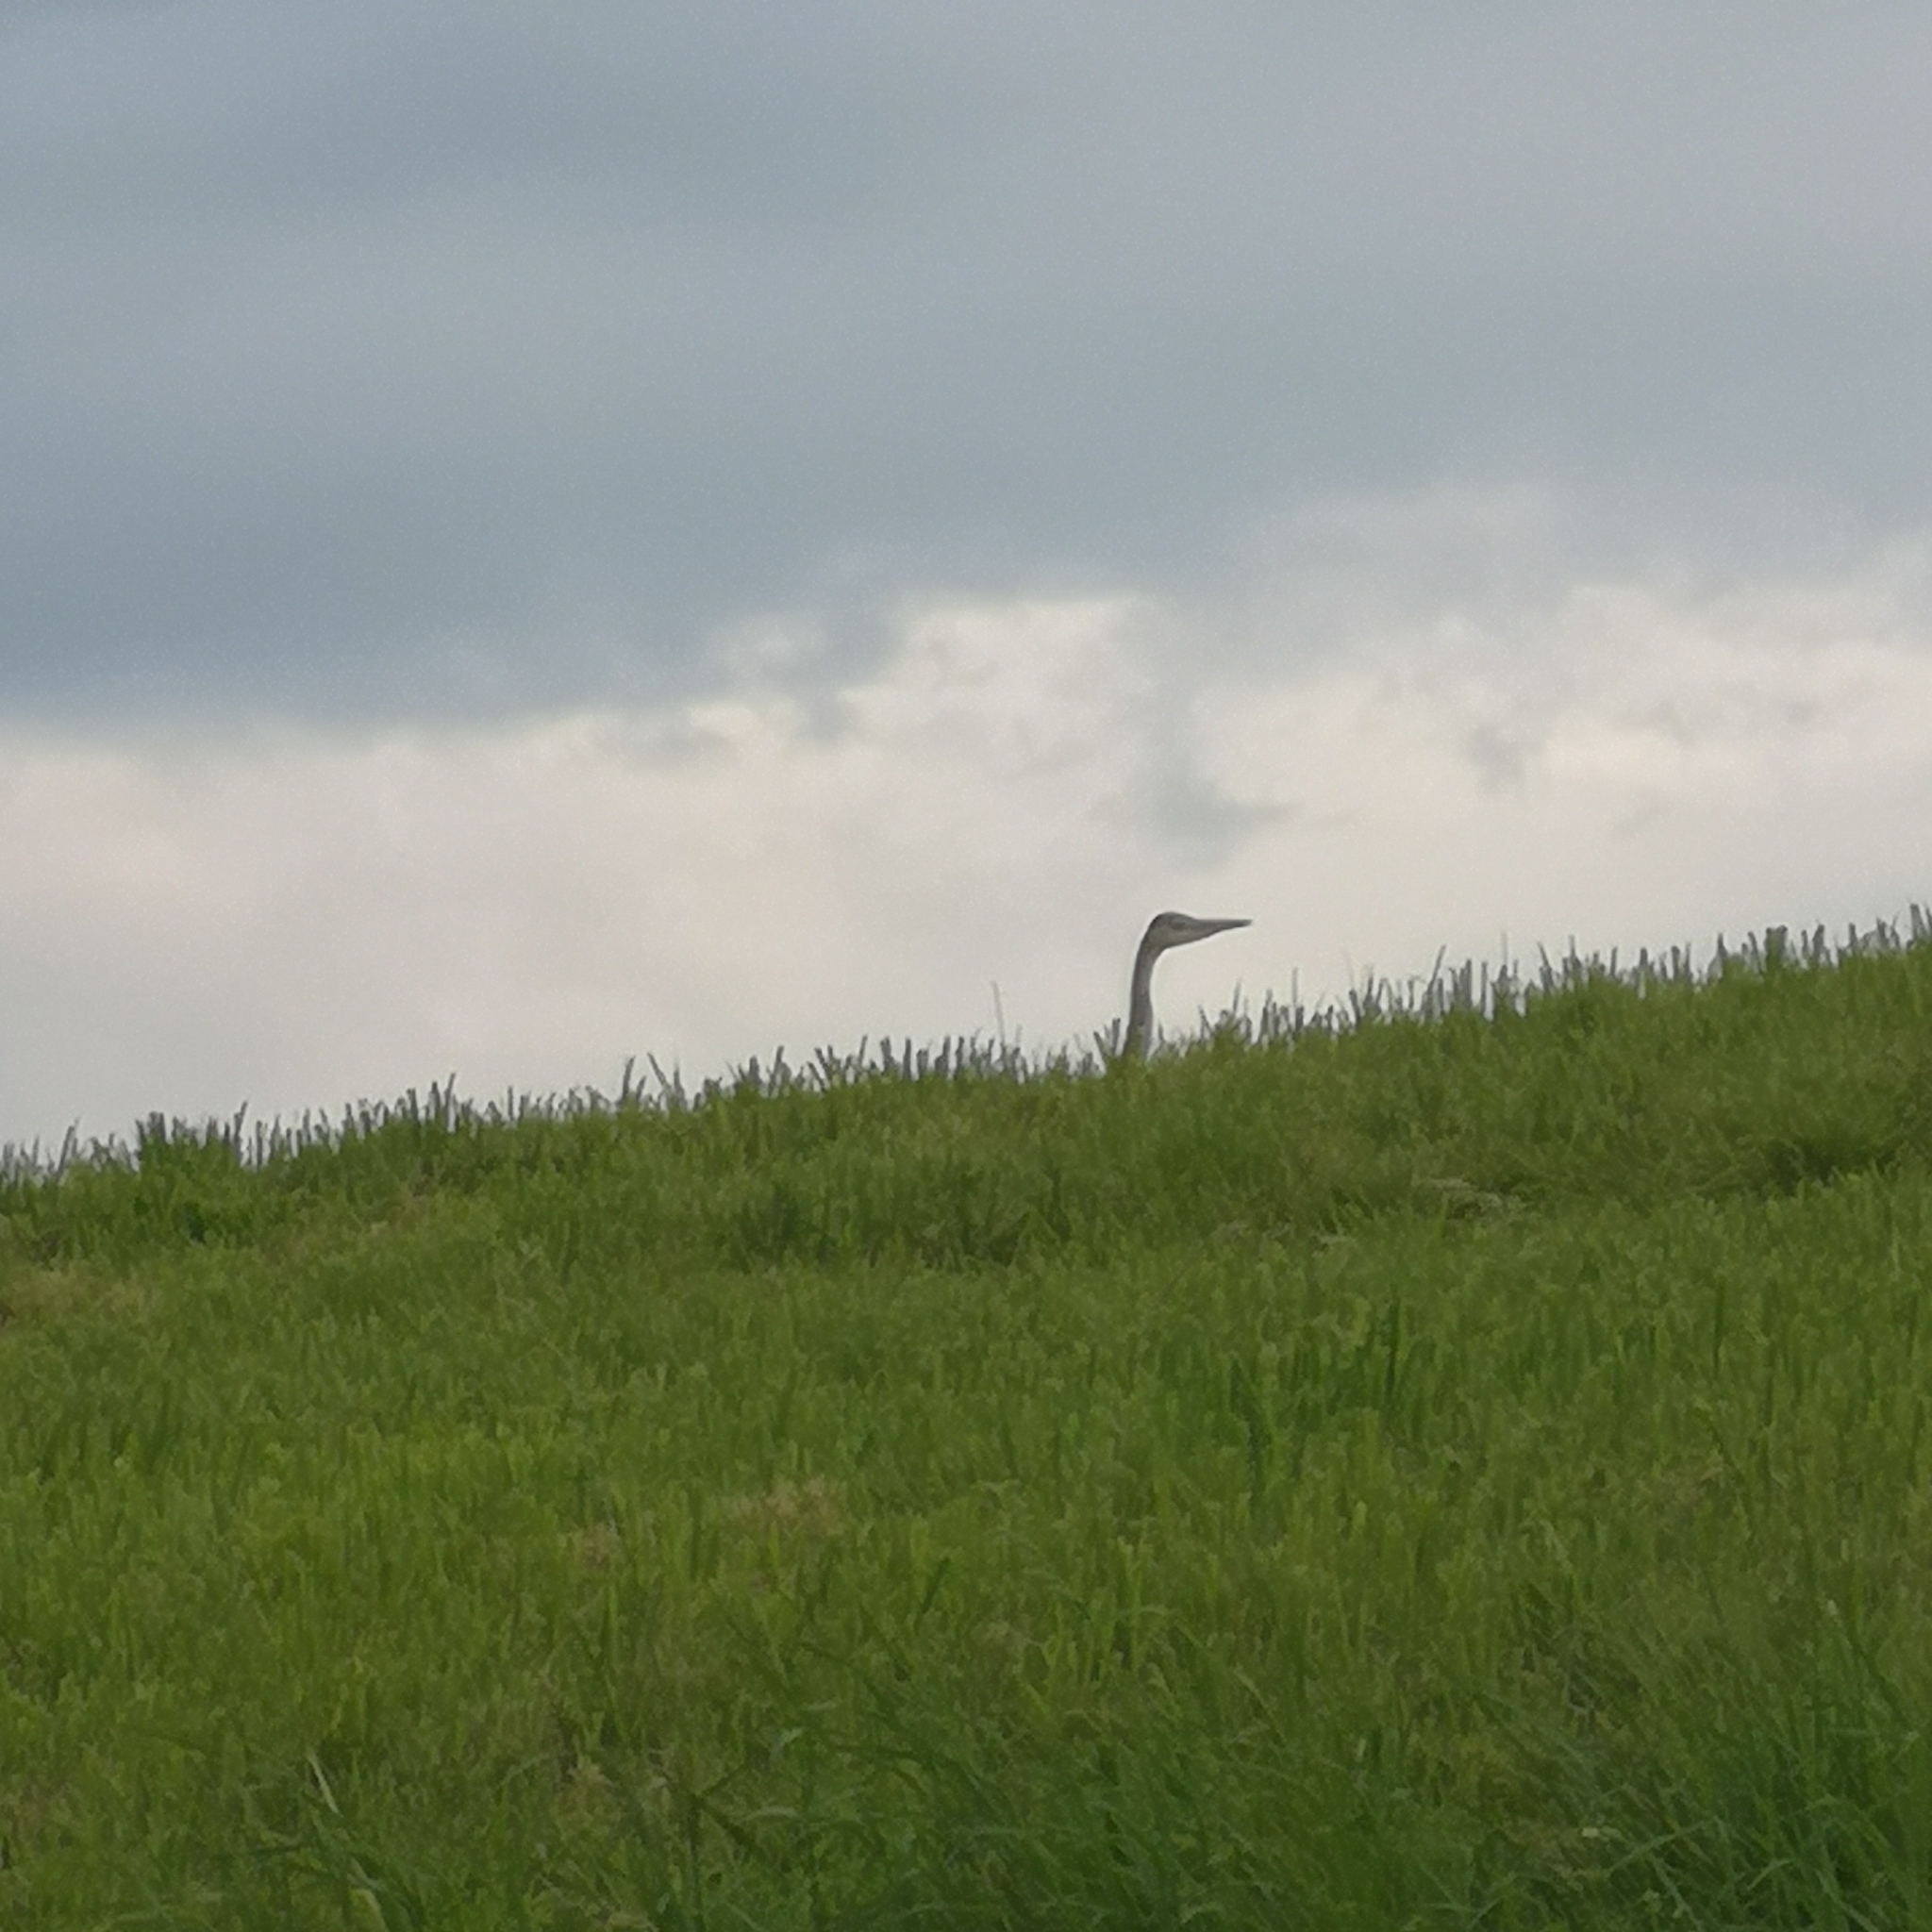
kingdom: Animalia
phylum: Chordata
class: Aves
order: Pelecaniformes
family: Ardeidae
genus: Ardea
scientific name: Ardea cinerea
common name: Grey heron
